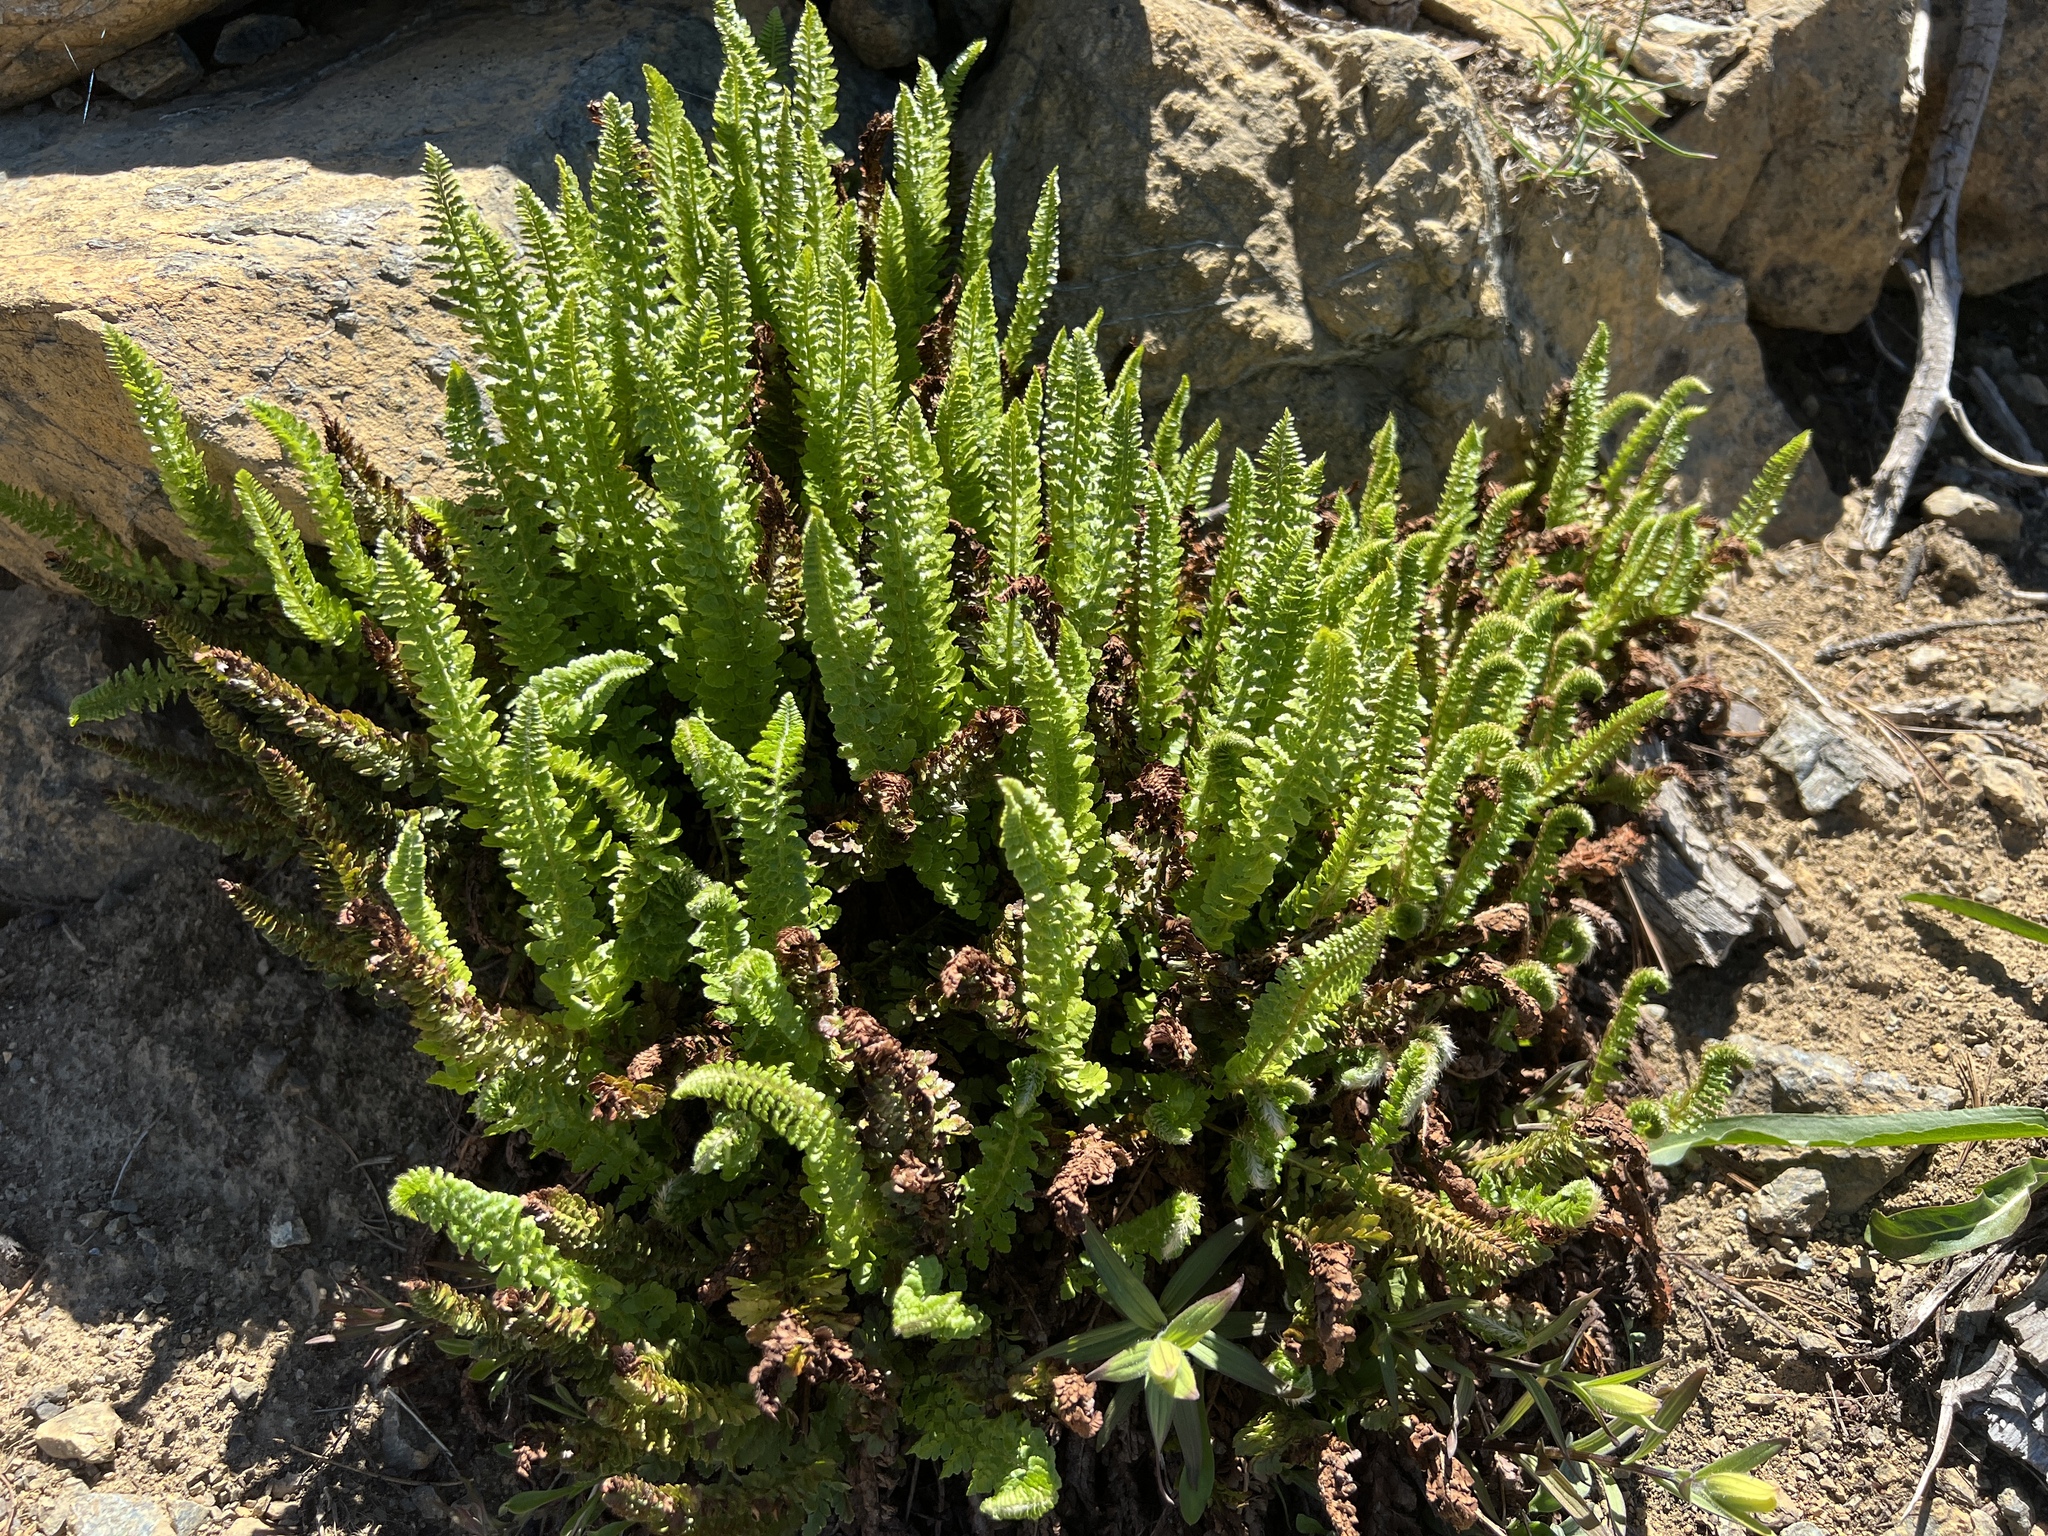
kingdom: Plantae
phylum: Tracheophyta
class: Polypodiopsida
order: Polypodiales
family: Dryopteridaceae
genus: Polystichum
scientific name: Polystichum lemmonii
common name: Lemmon's holly fern
